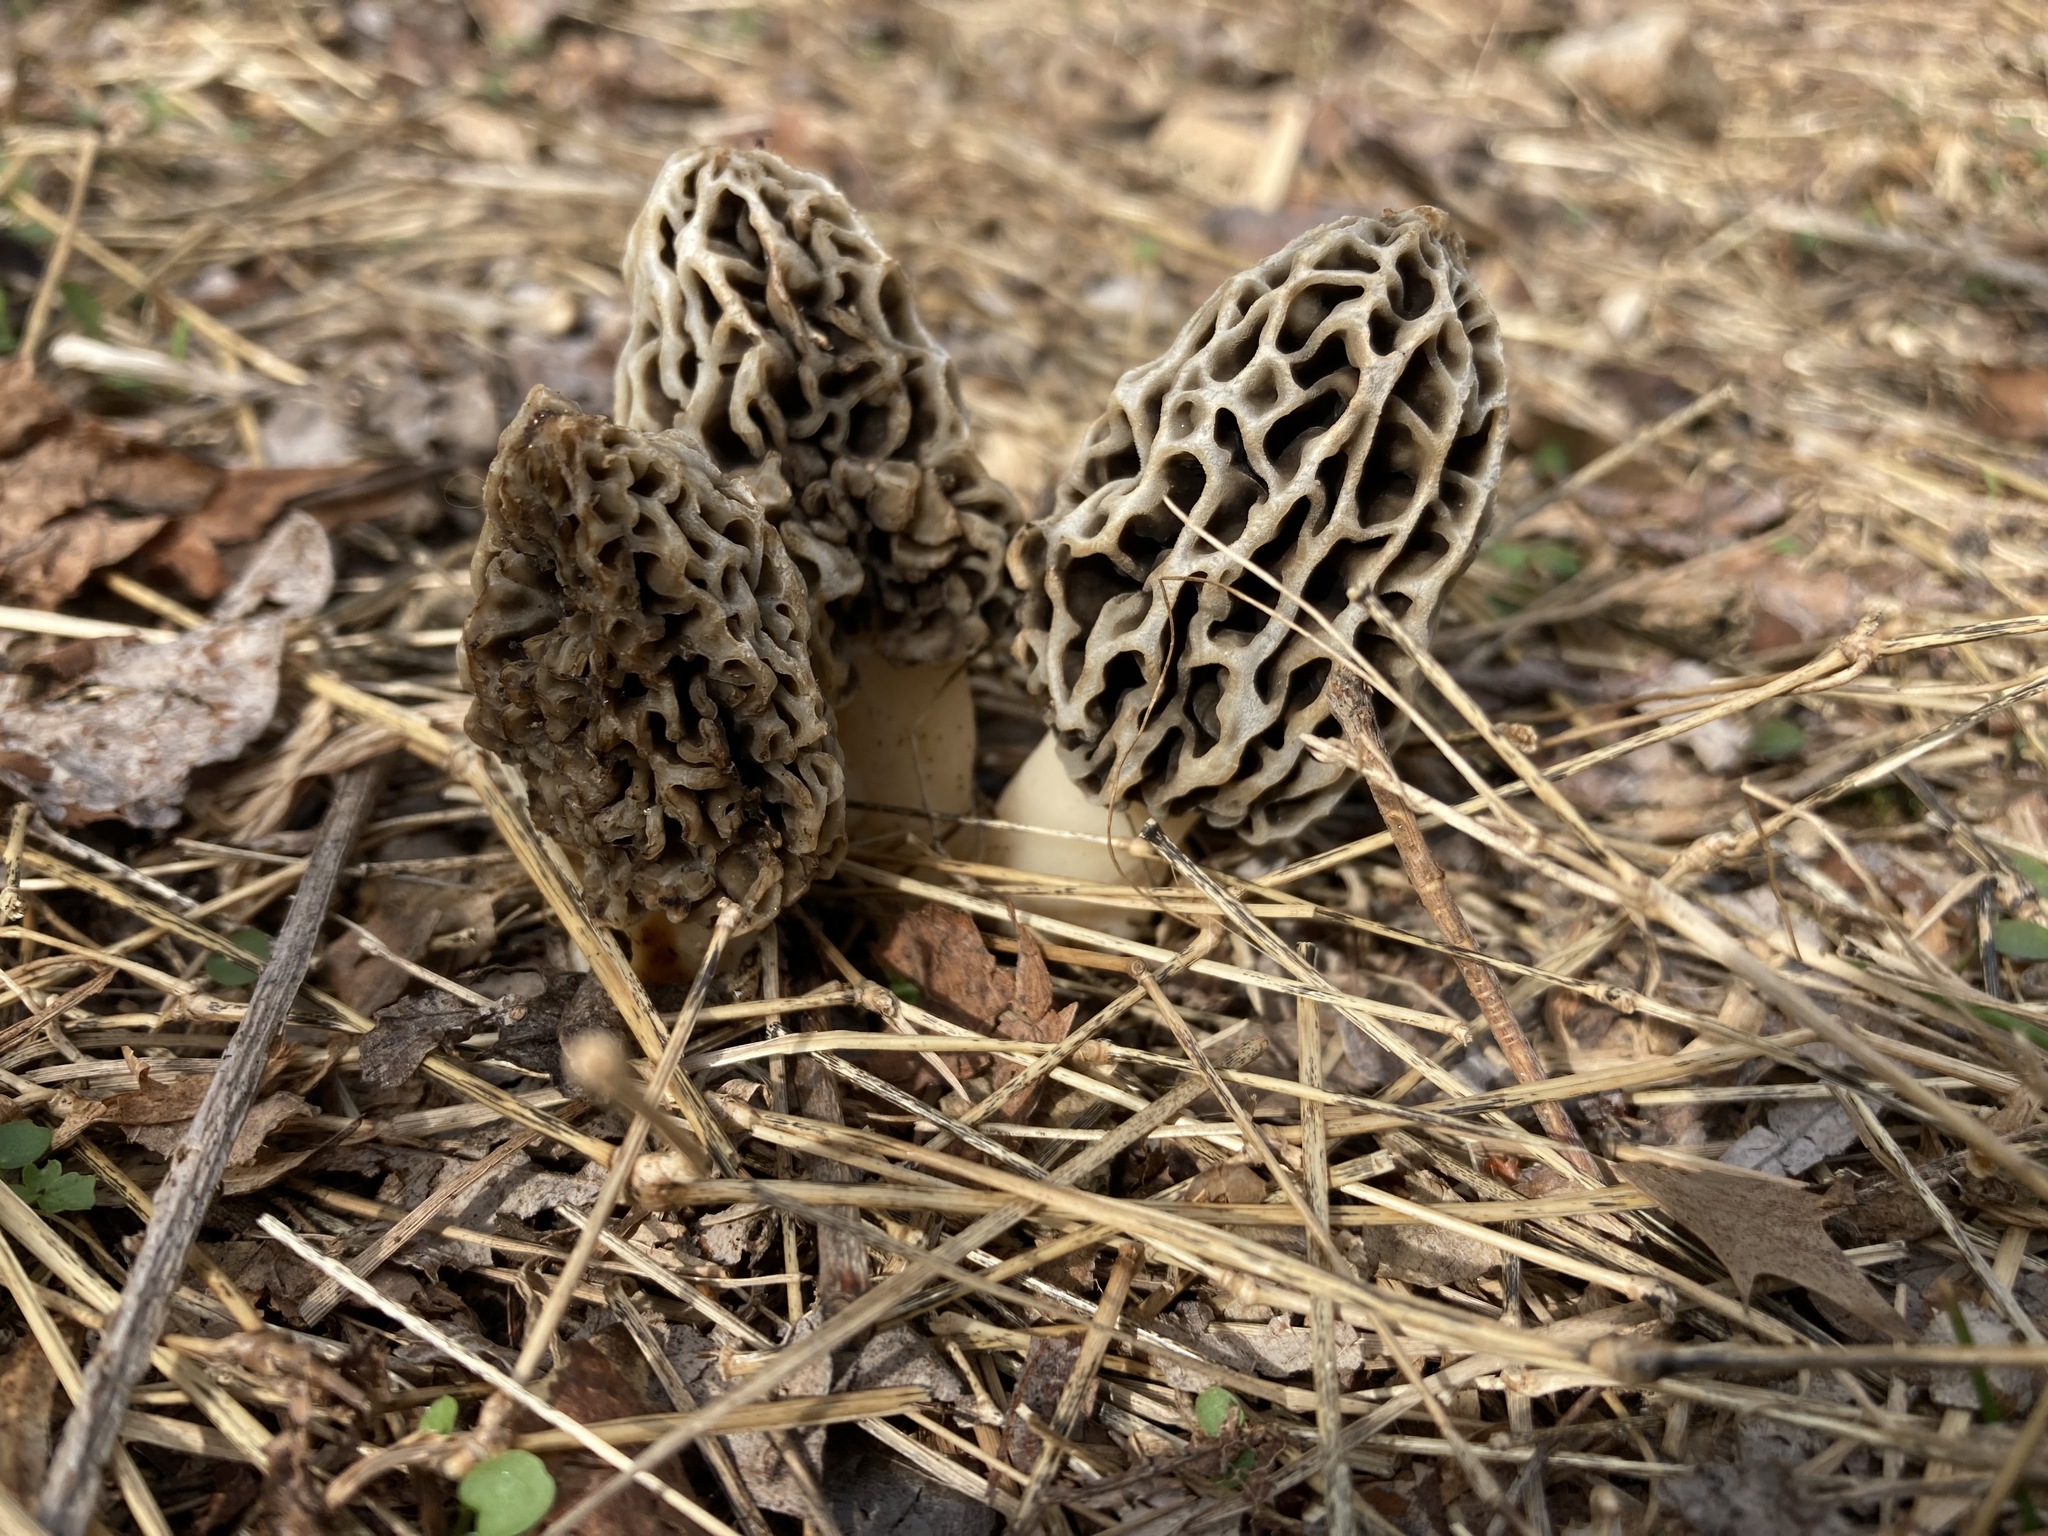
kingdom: Fungi
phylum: Ascomycota
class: Pezizomycetes
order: Pezizales
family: Morchellaceae
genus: Morchella
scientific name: Morchella americana
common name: White morel
